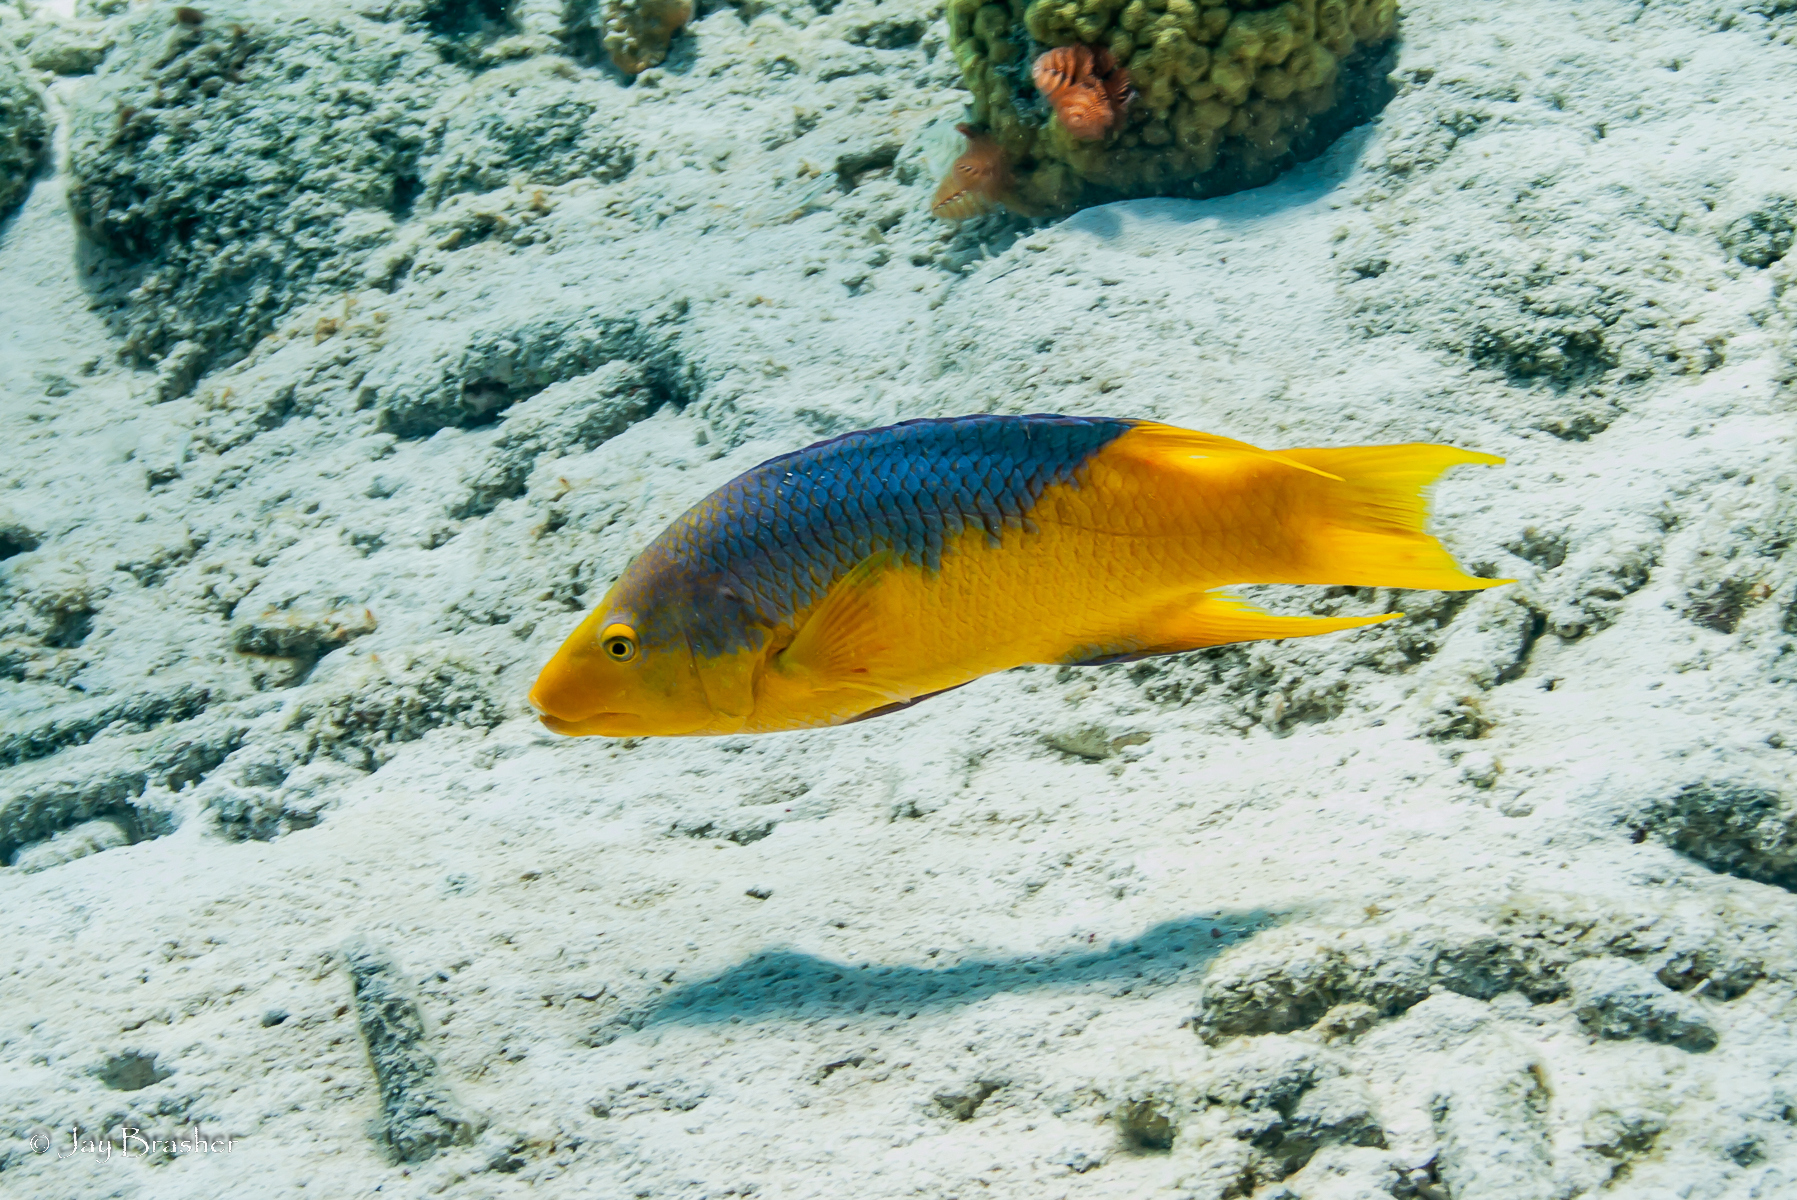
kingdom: Animalia
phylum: Chordata
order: Perciformes
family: Labridae
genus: Bodianus
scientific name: Bodianus rufus
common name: Spanish hogfish
